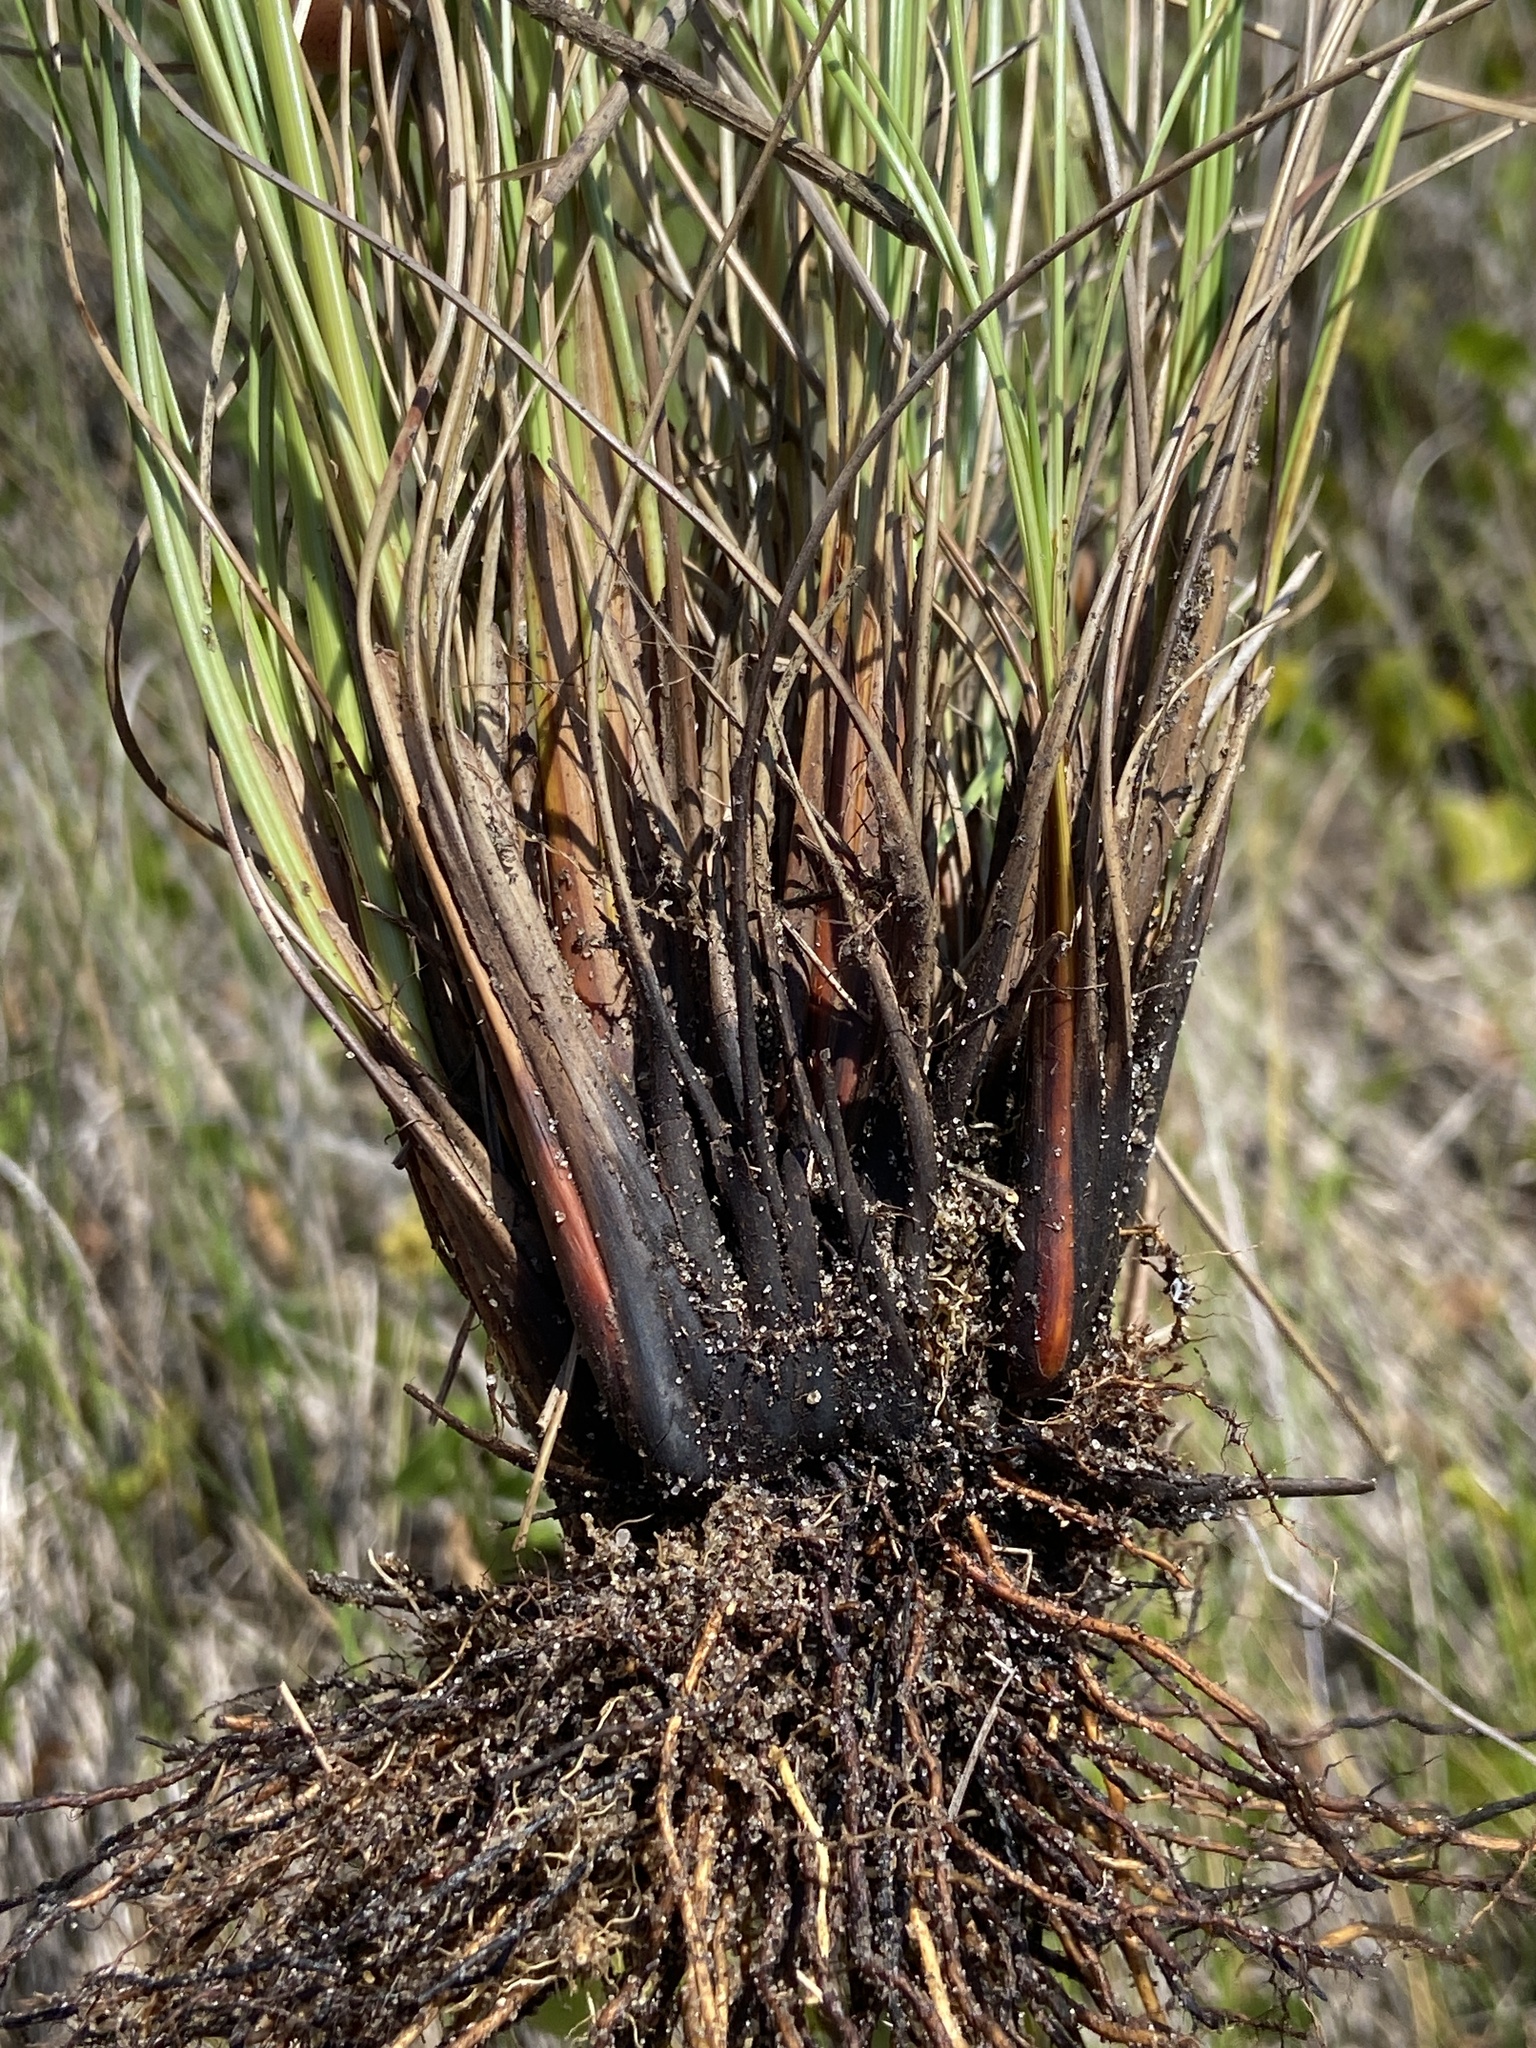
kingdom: Plantae
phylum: Tracheophyta
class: Liliopsida
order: Poales
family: Cyperaceae
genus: Fimbristylis
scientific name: Fimbristylis spadicea
